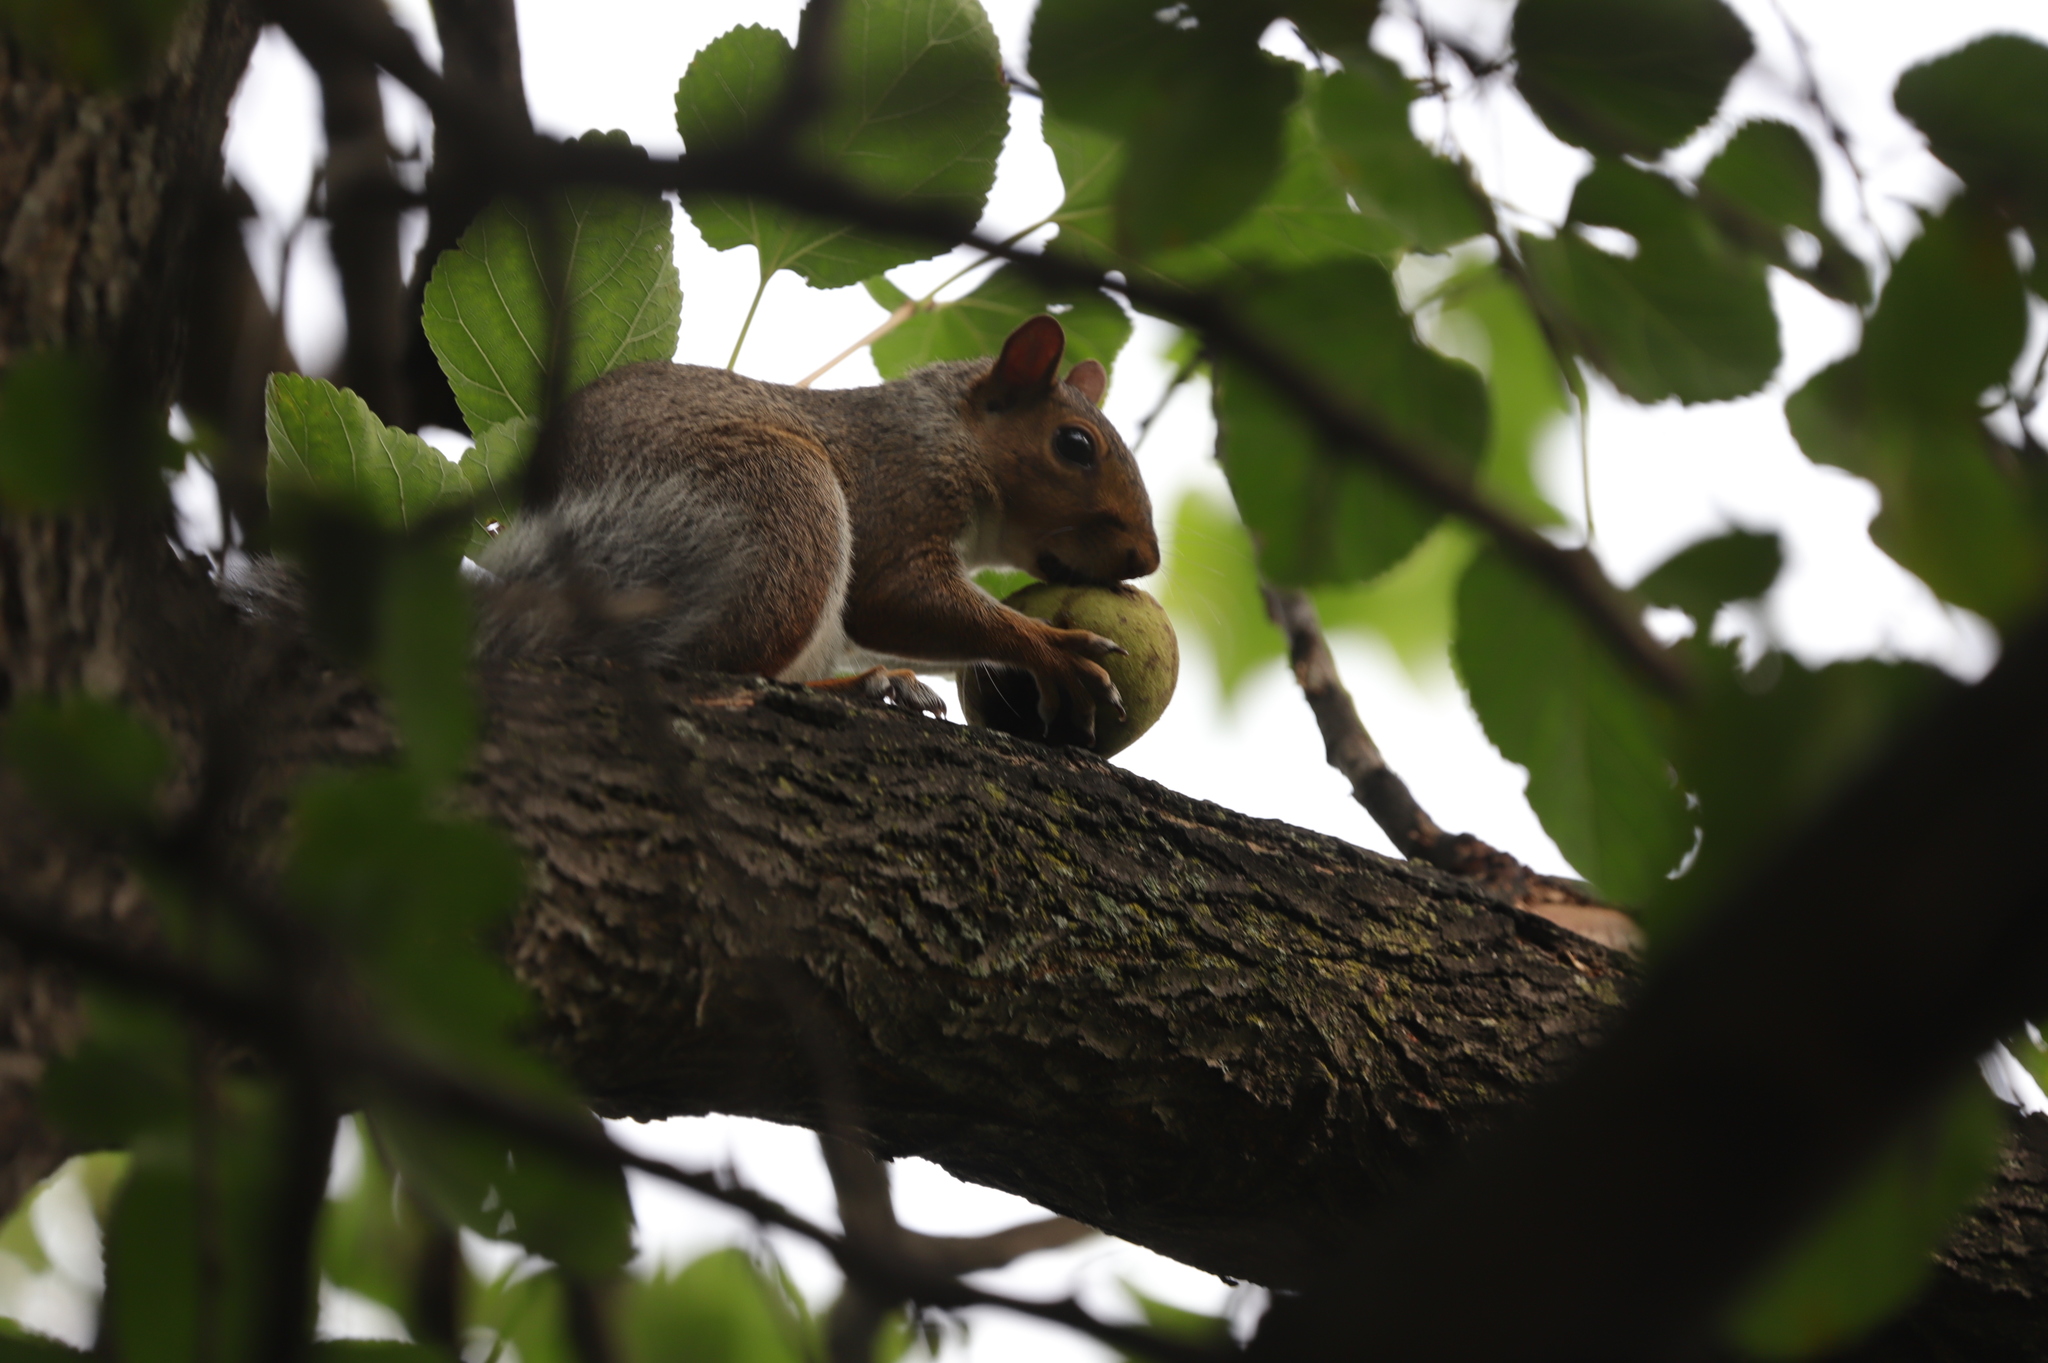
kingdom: Animalia
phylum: Chordata
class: Mammalia
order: Rodentia
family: Sciuridae
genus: Sciurus
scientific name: Sciurus carolinensis
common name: Eastern gray squirrel
